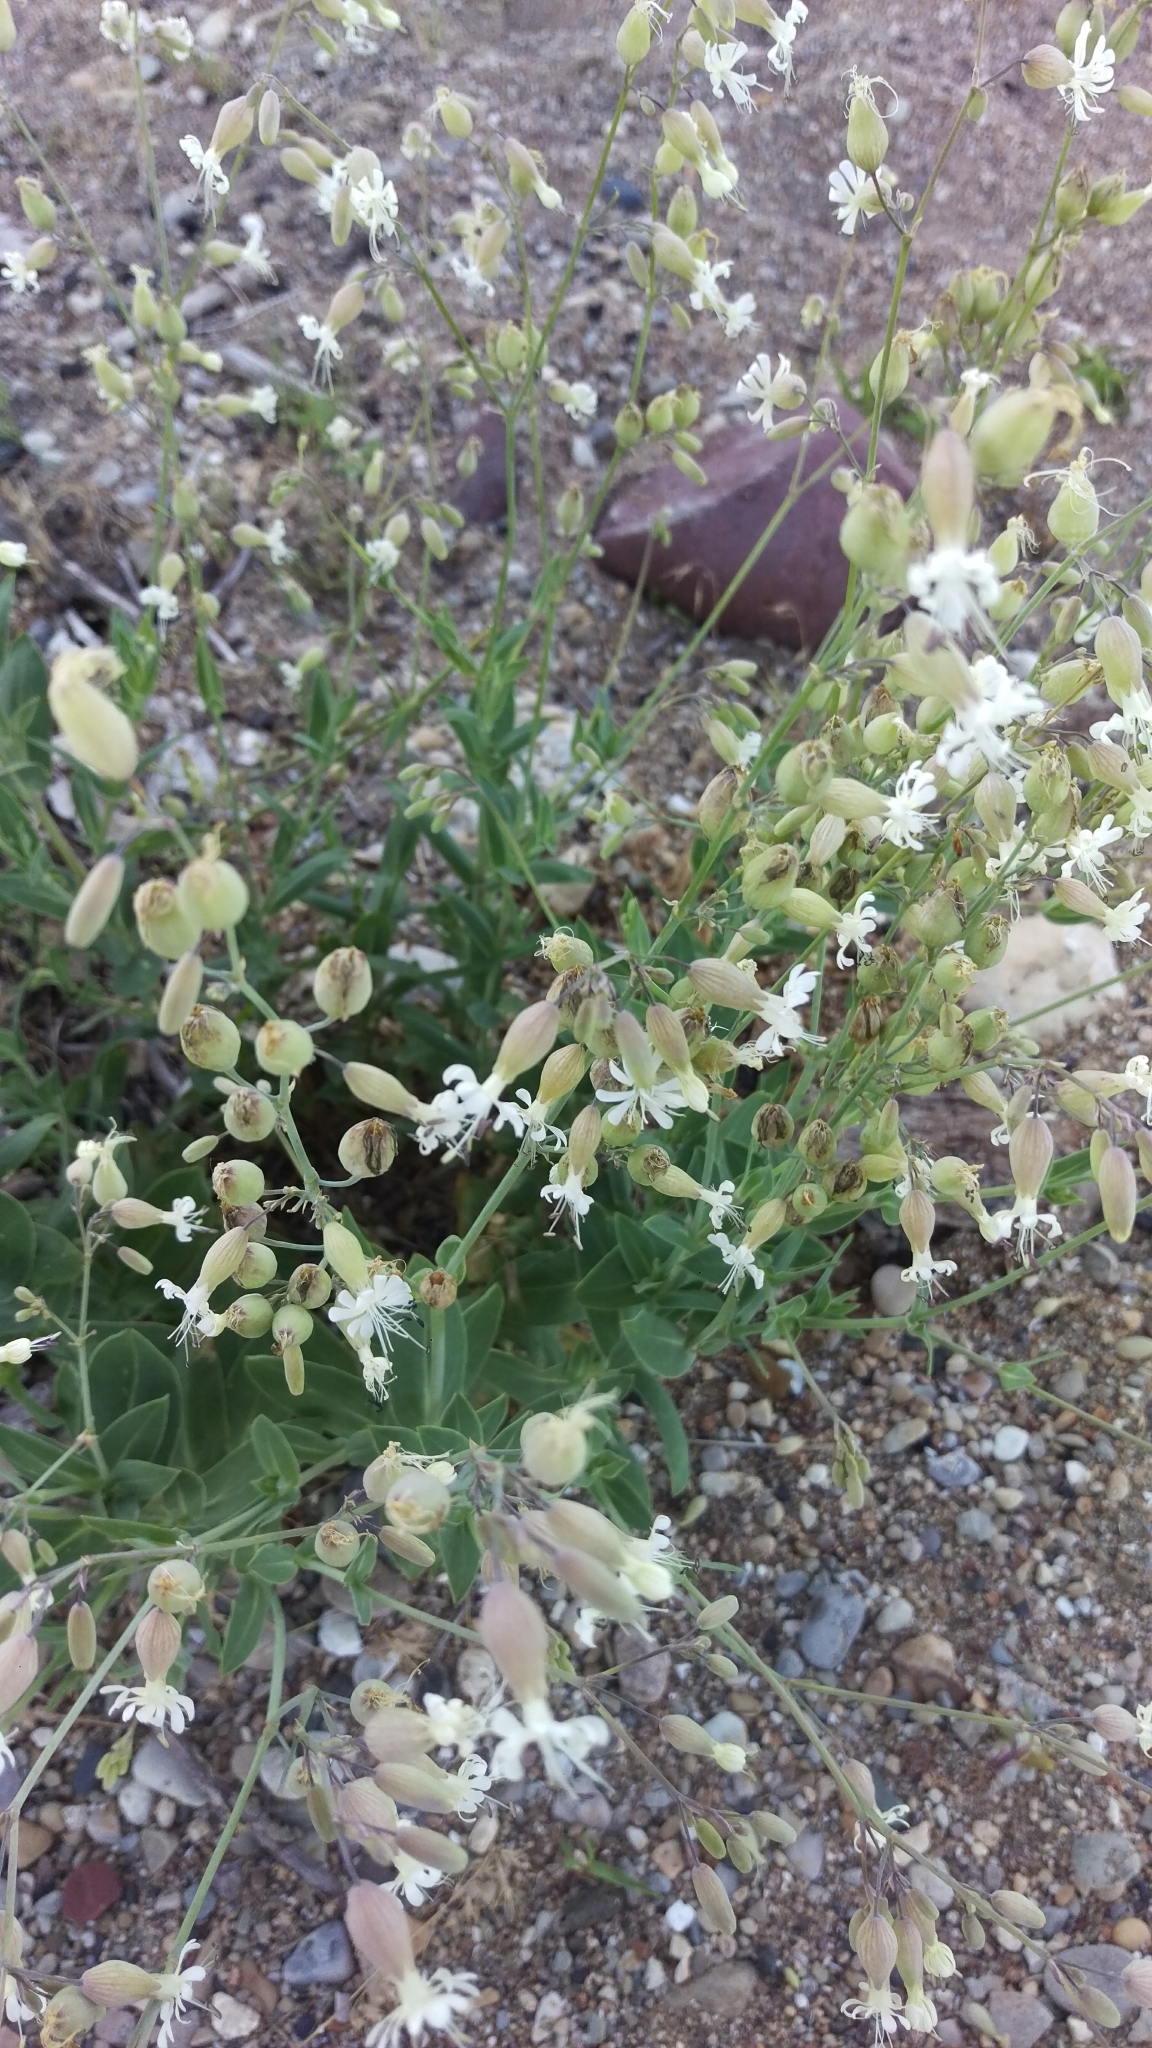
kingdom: Plantae
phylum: Tracheophyta
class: Magnoliopsida
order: Caryophyllales
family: Caryophyllaceae
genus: Silene
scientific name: Silene vulgaris
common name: Bladder campion
